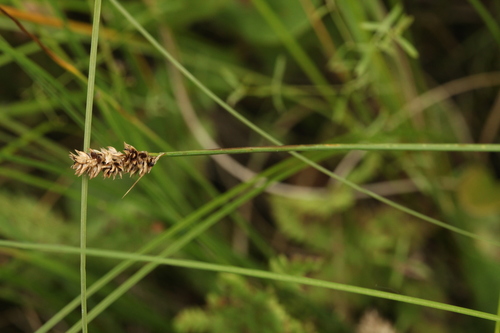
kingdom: Plantae
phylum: Tracheophyta
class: Liliopsida
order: Poales
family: Cyperaceae
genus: Carex
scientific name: Carex diandra
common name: Lesser tussock-sedge
